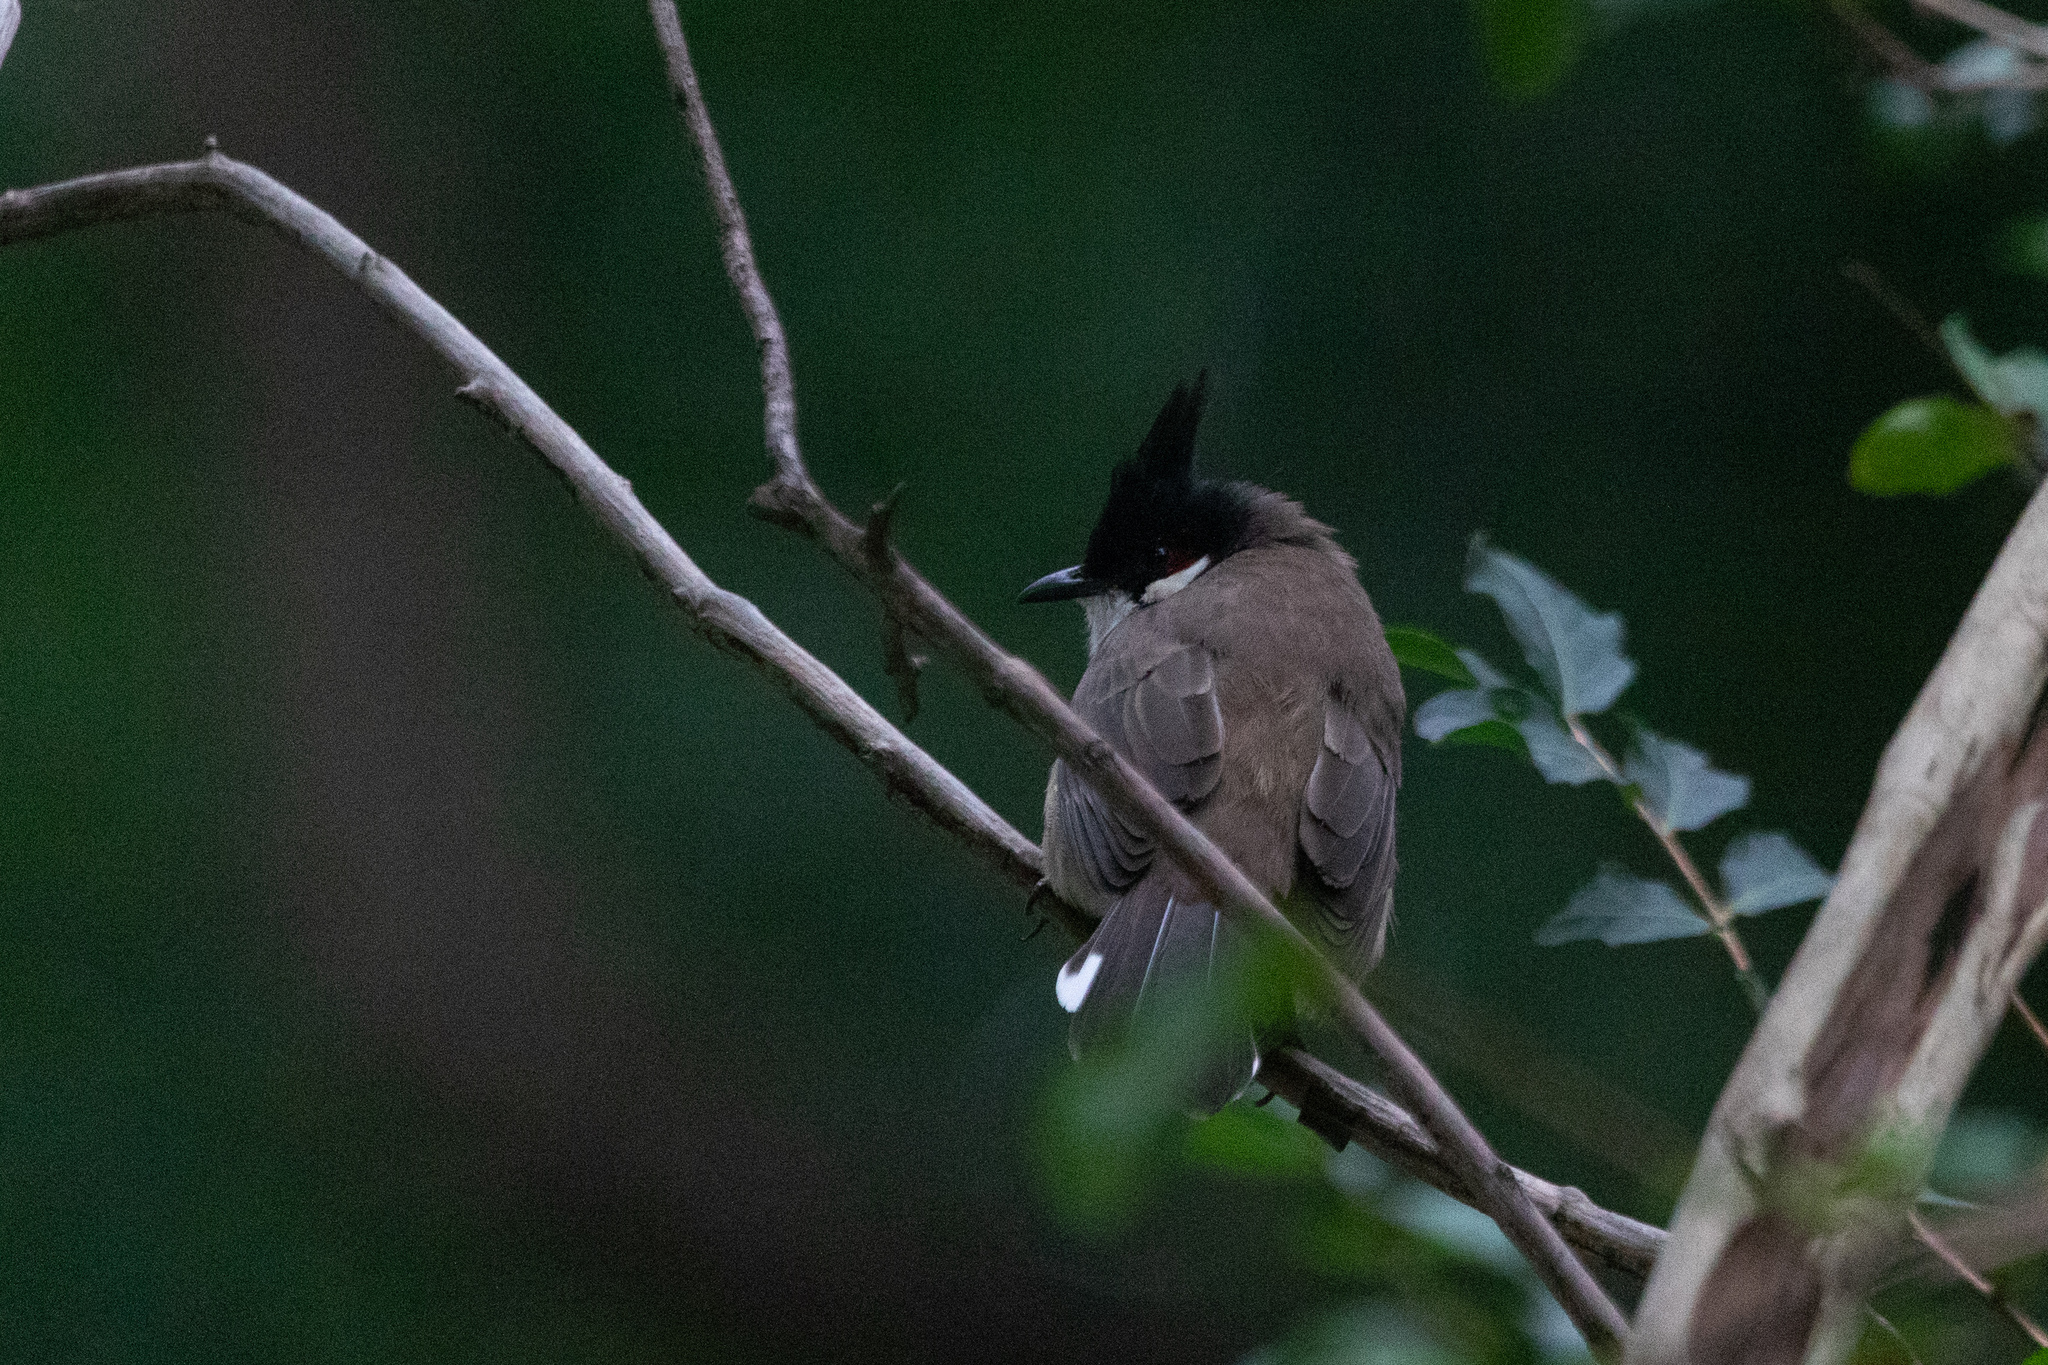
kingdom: Animalia
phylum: Chordata
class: Aves
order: Passeriformes
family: Pycnonotidae
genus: Pycnonotus
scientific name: Pycnonotus jocosus
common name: Red-whiskered bulbul
